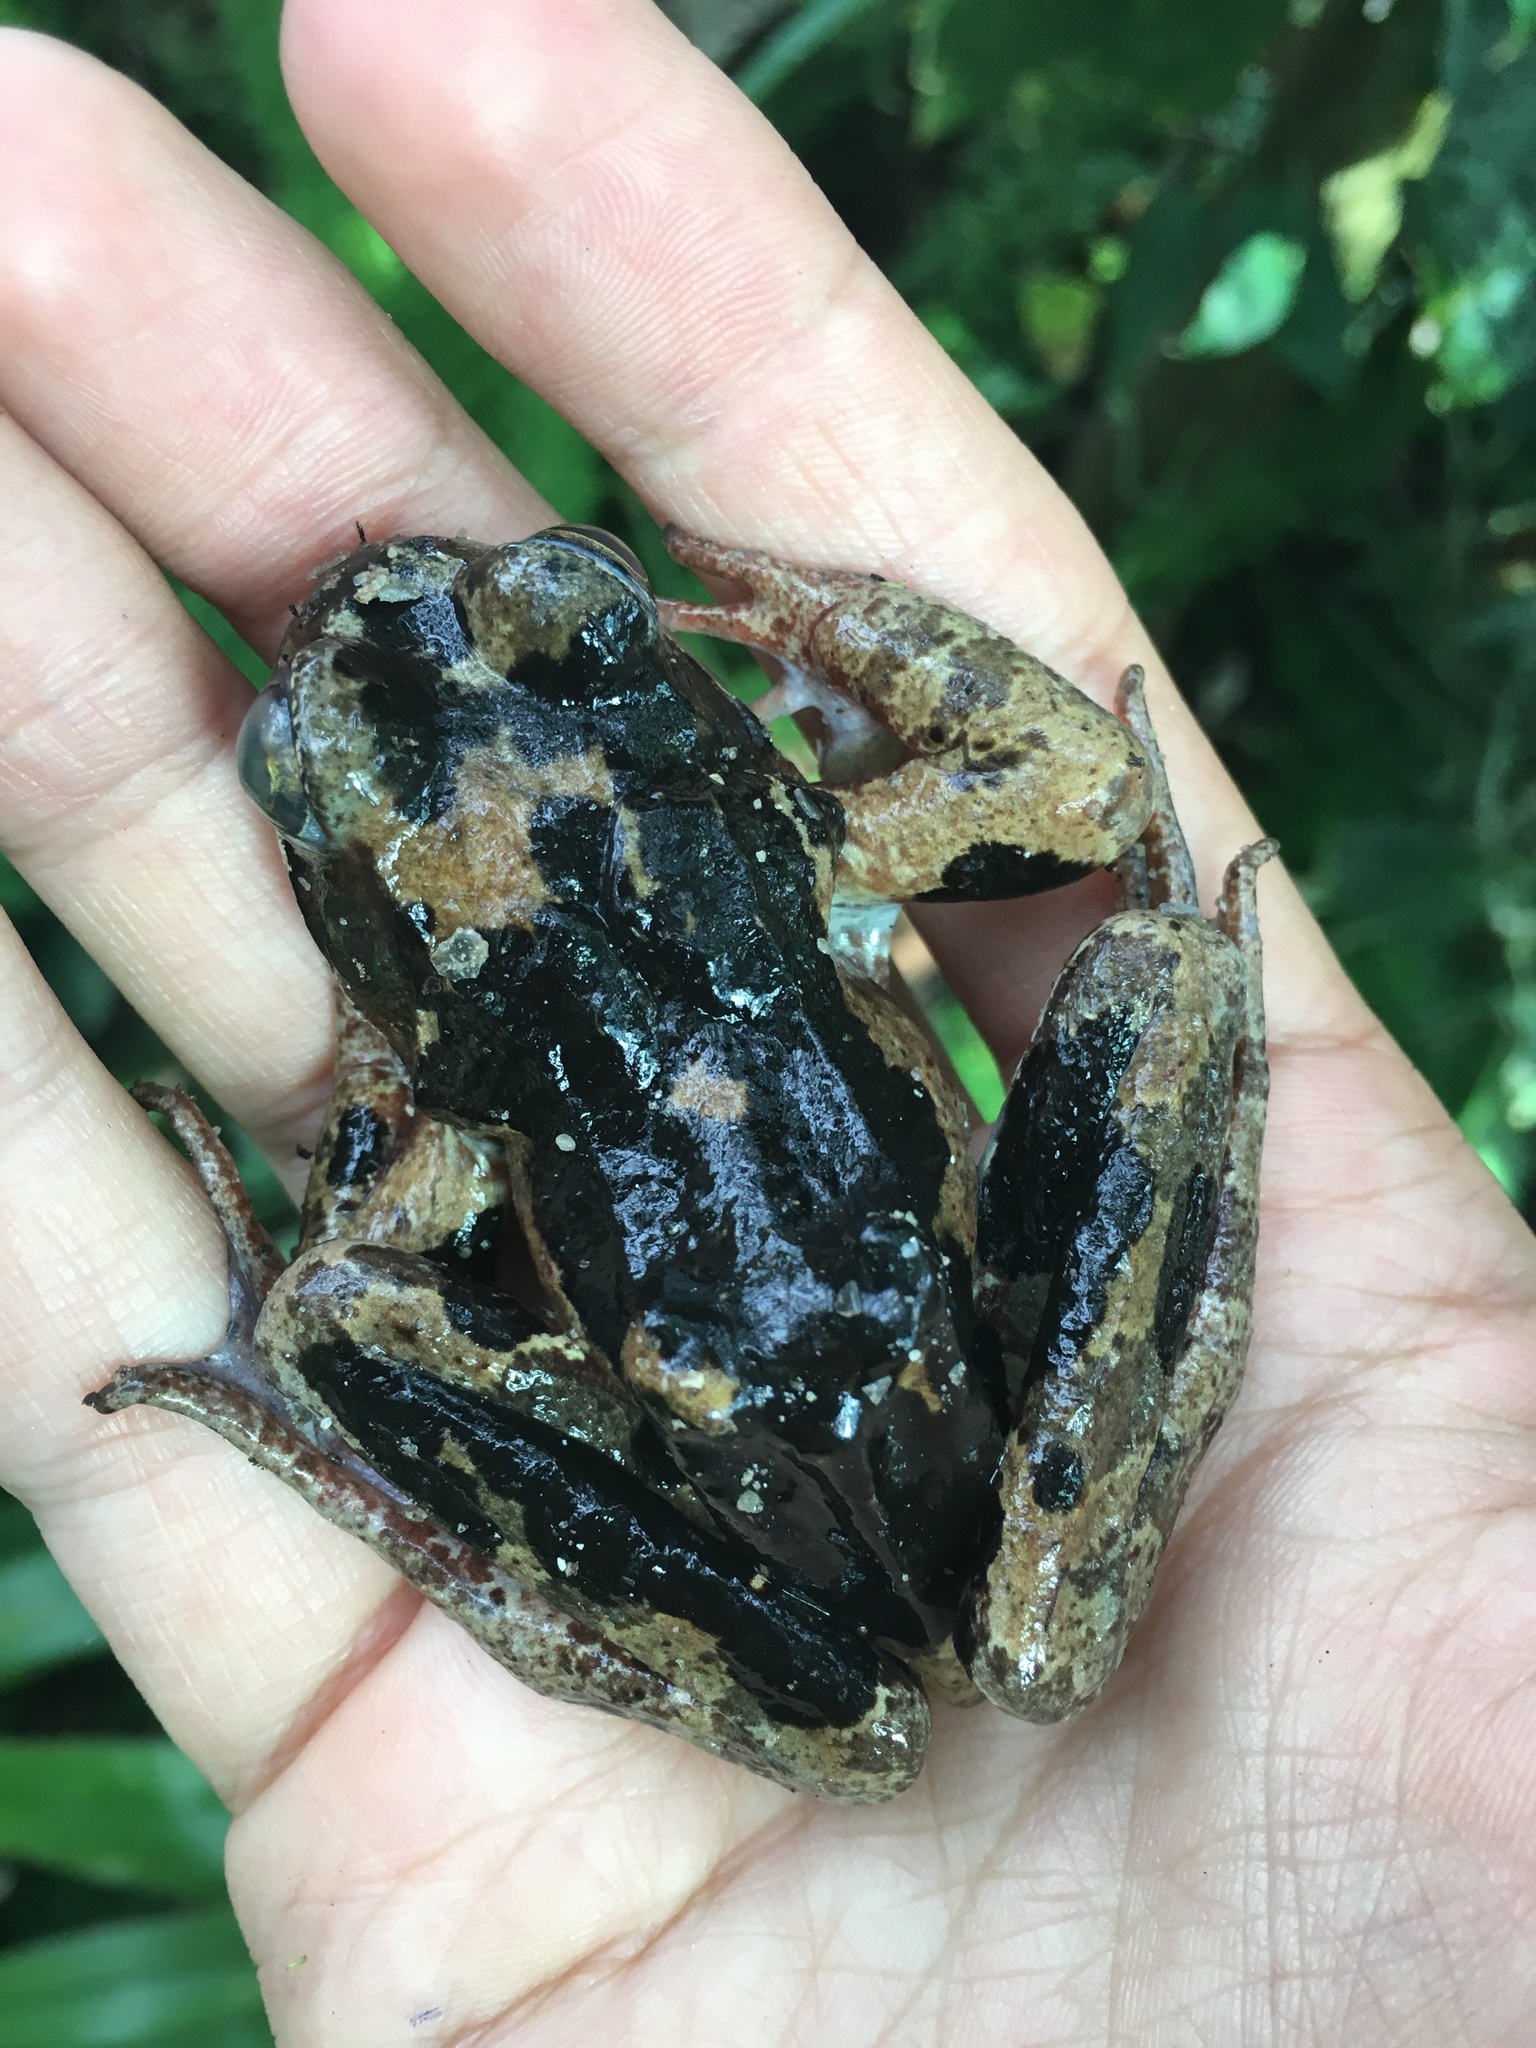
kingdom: Animalia
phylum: Chordata
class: Amphibia
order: Anura
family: Ranidae
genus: Rana
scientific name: Rana temporaria
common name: Common frog
